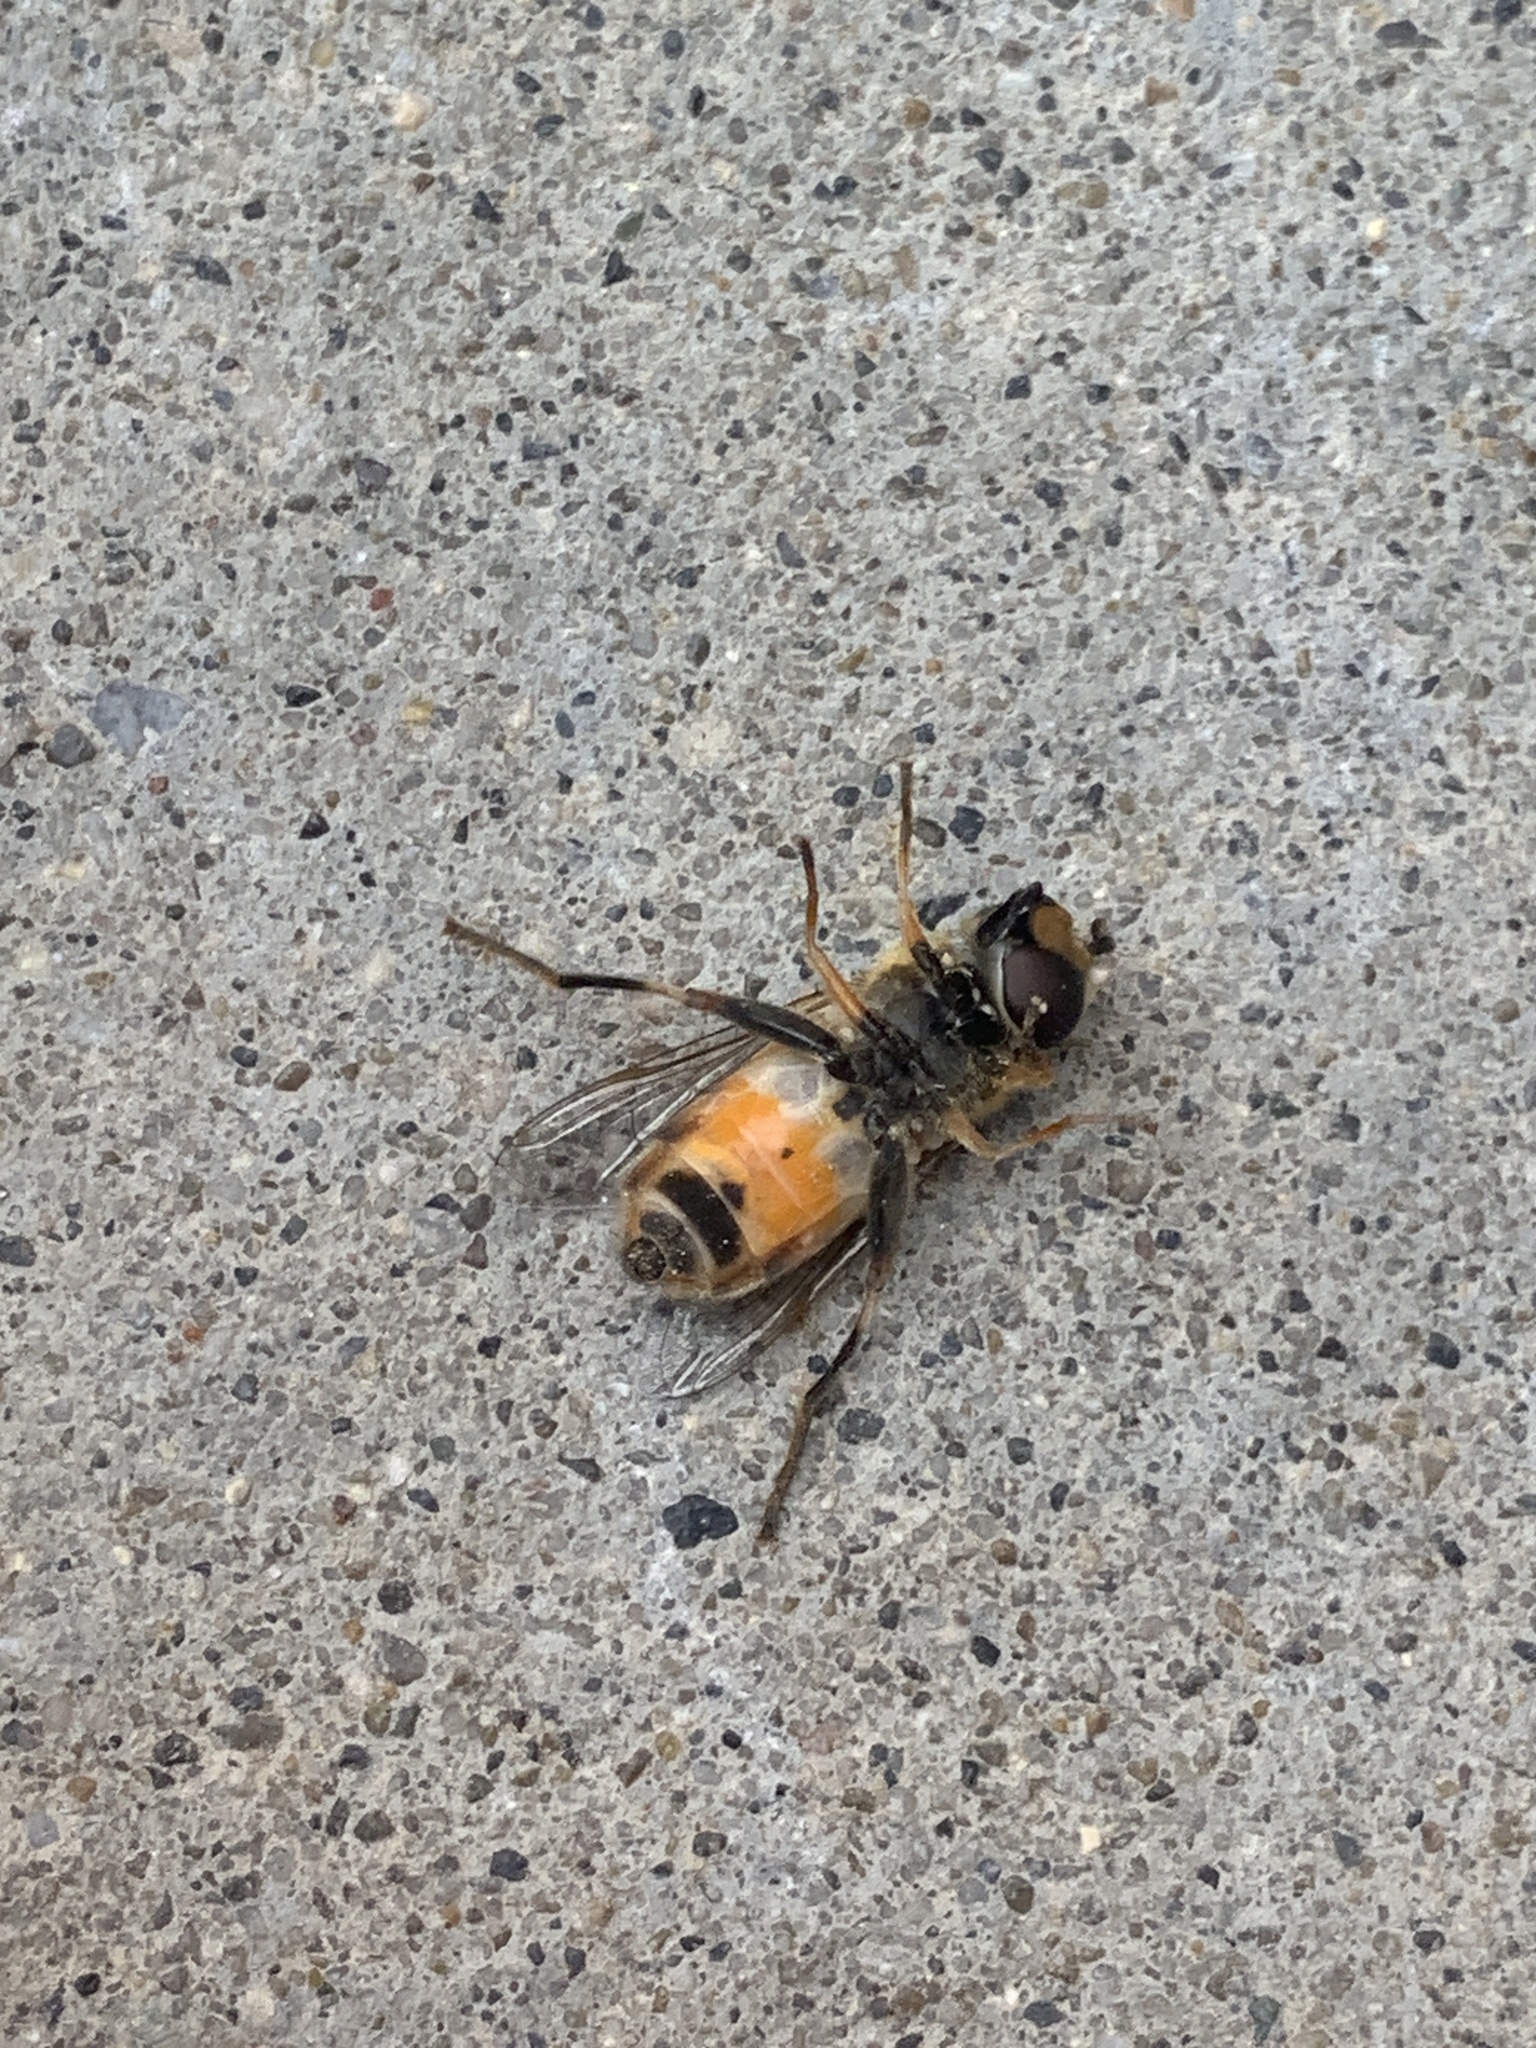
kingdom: Animalia
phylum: Arthropoda
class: Insecta
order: Diptera
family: Syrphidae
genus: Helophilus
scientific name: Helophilus fasciatus
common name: Narrow-headed marsh fly
